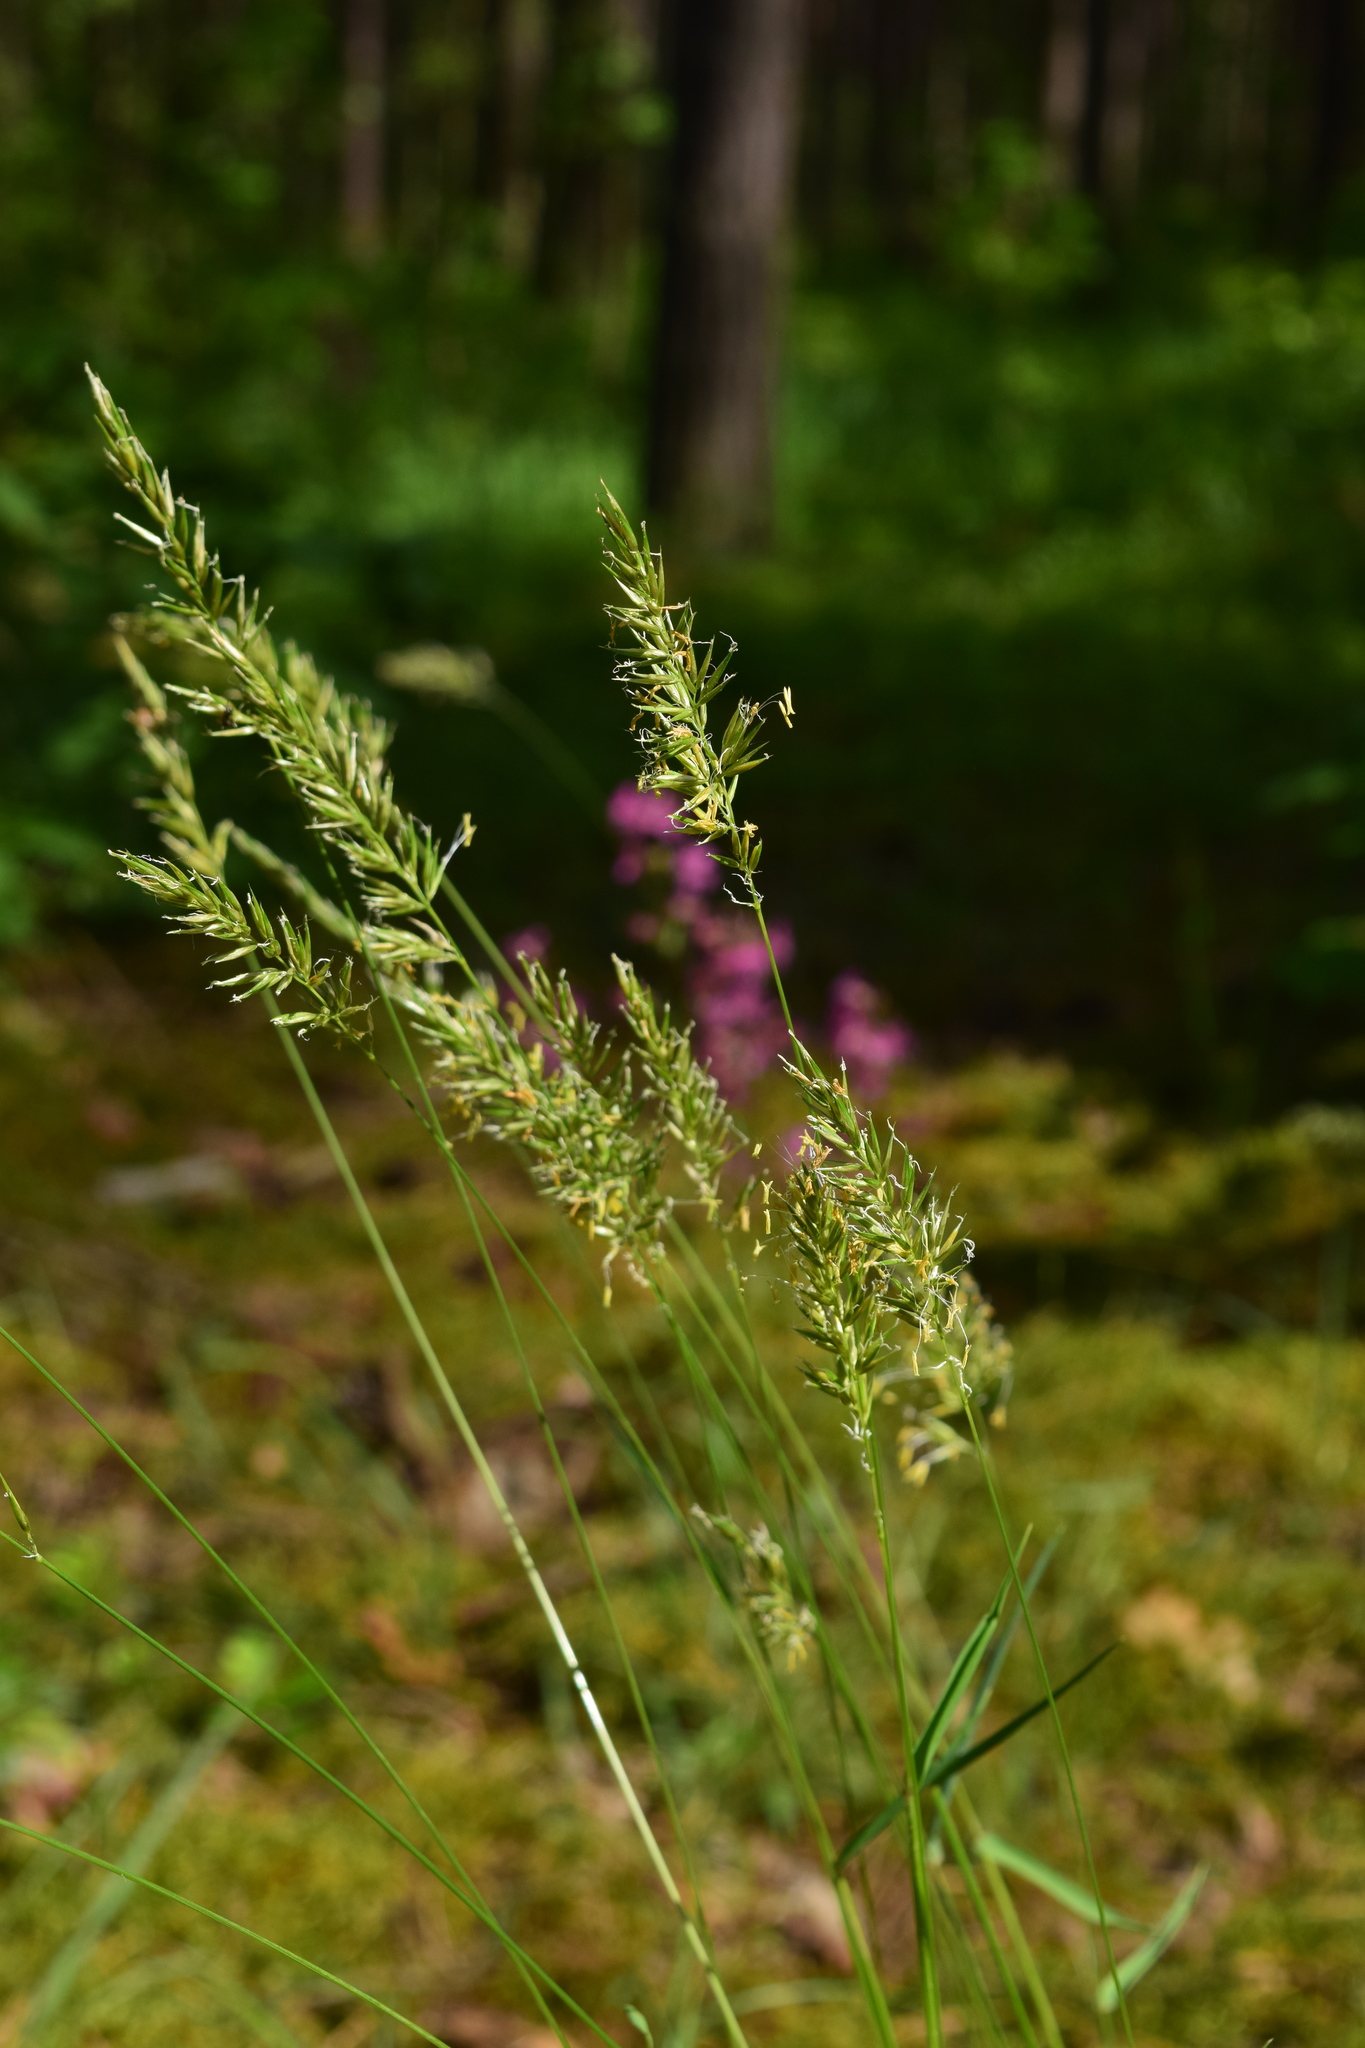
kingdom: Plantae
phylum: Tracheophyta
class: Liliopsida
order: Poales
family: Poaceae
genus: Anthoxanthum
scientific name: Anthoxanthum odoratum
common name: Sweet vernalgrass
